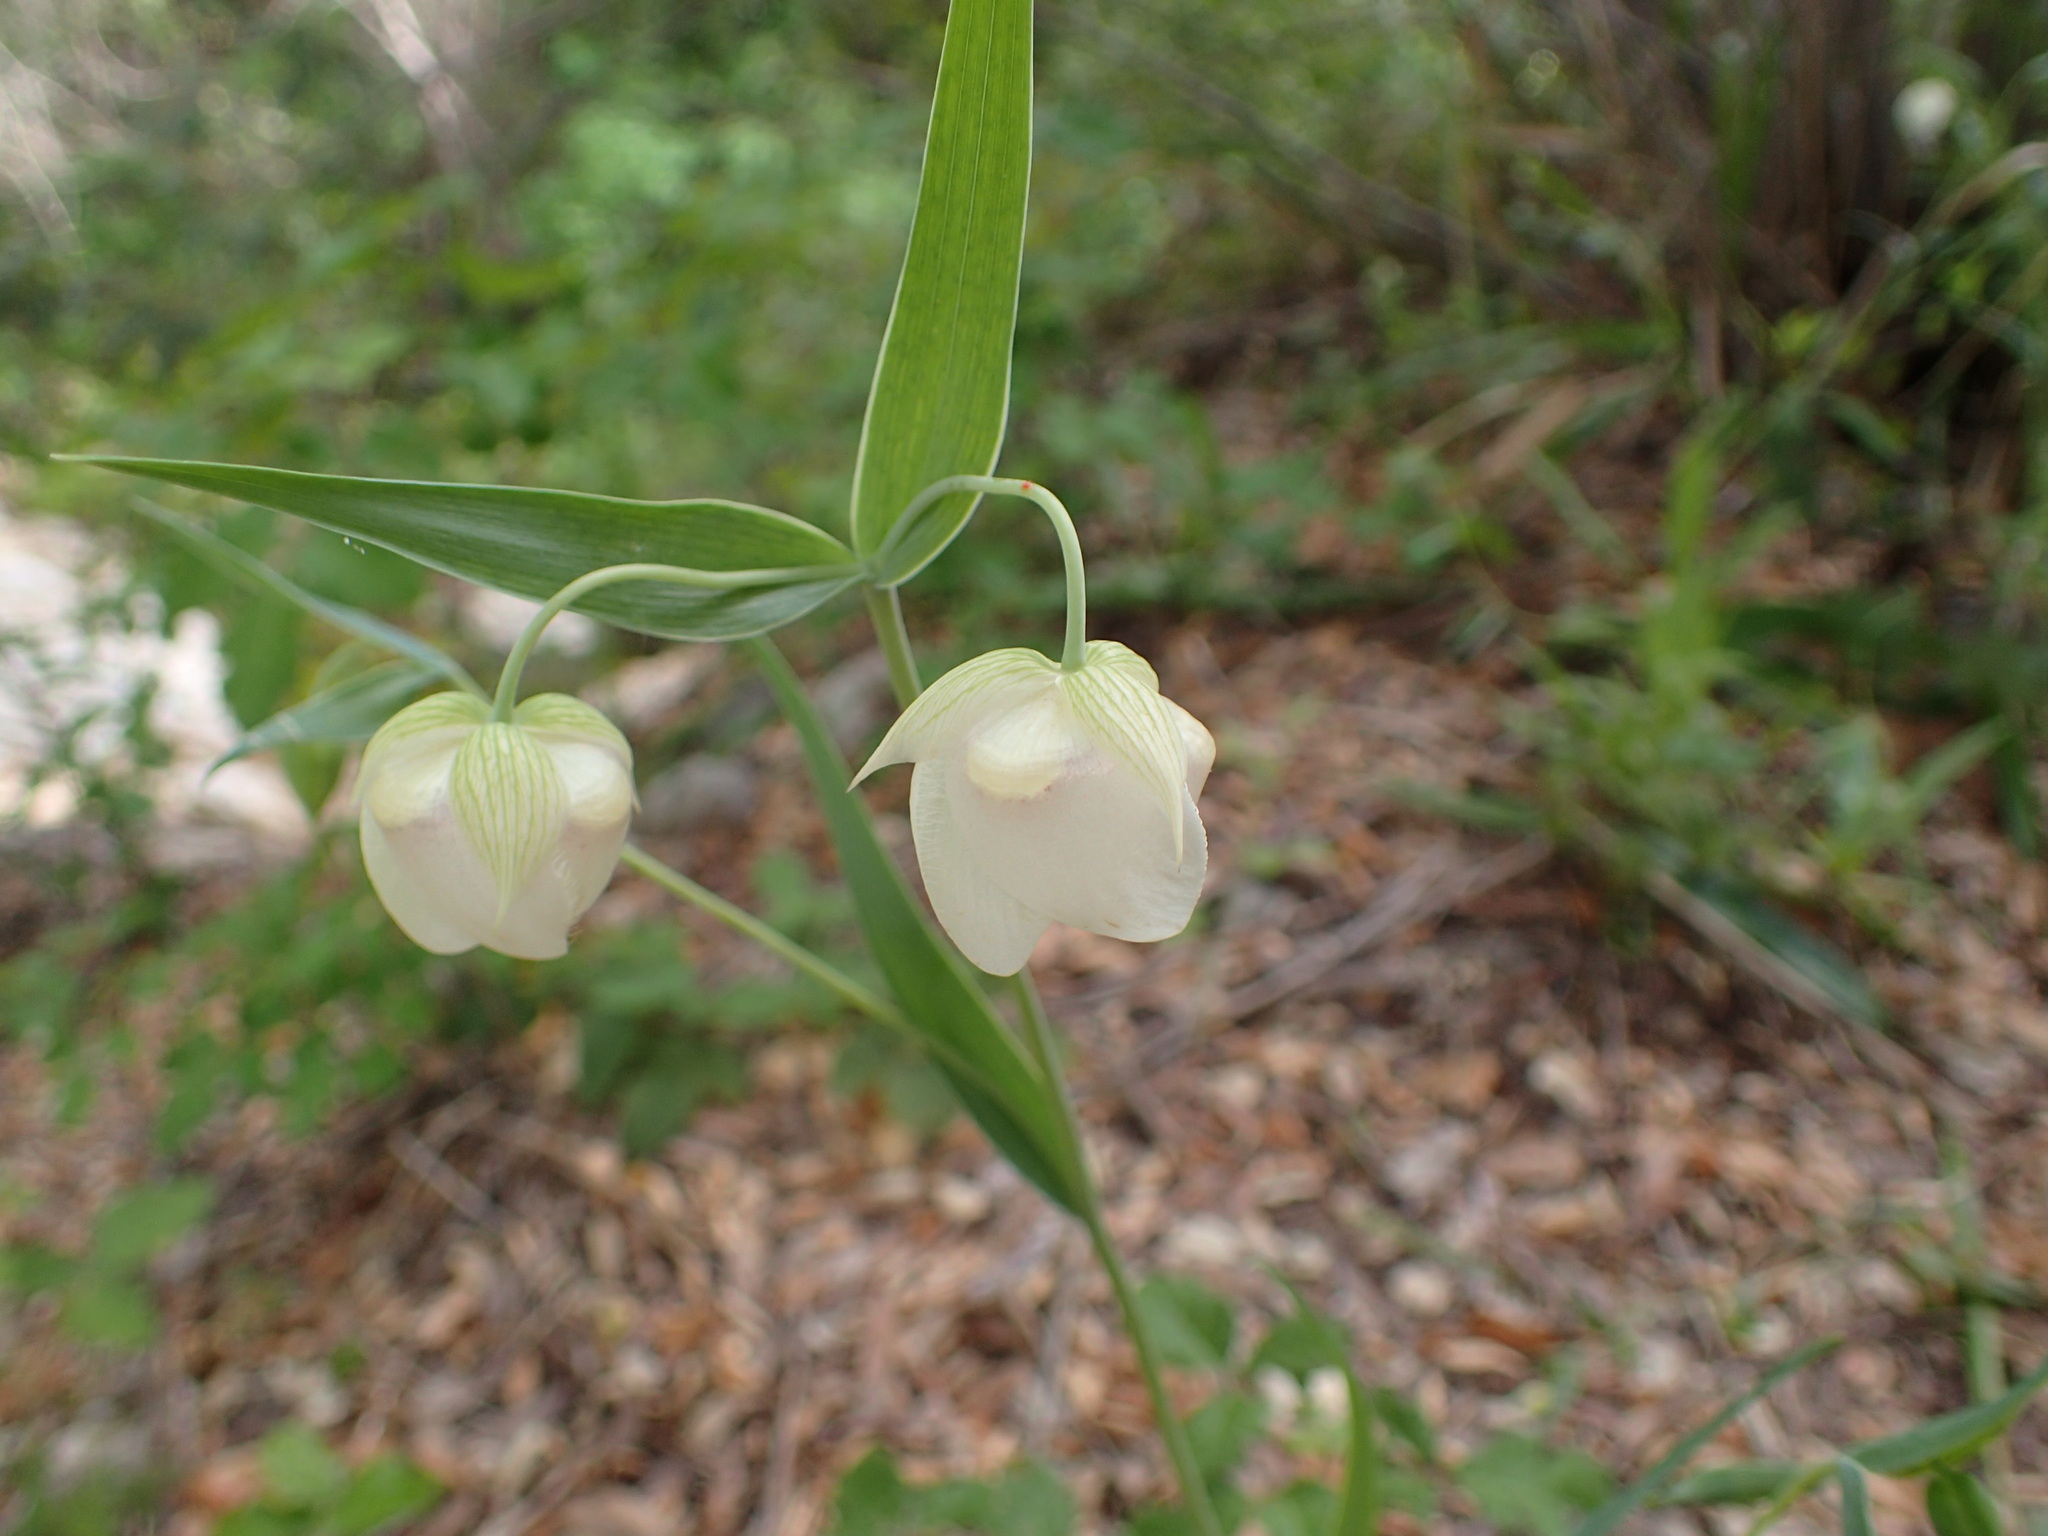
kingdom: Plantae
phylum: Tracheophyta
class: Liliopsida
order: Liliales
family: Liliaceae
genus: Calochortus
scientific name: Calochortus albus
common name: Fairy-lantern
